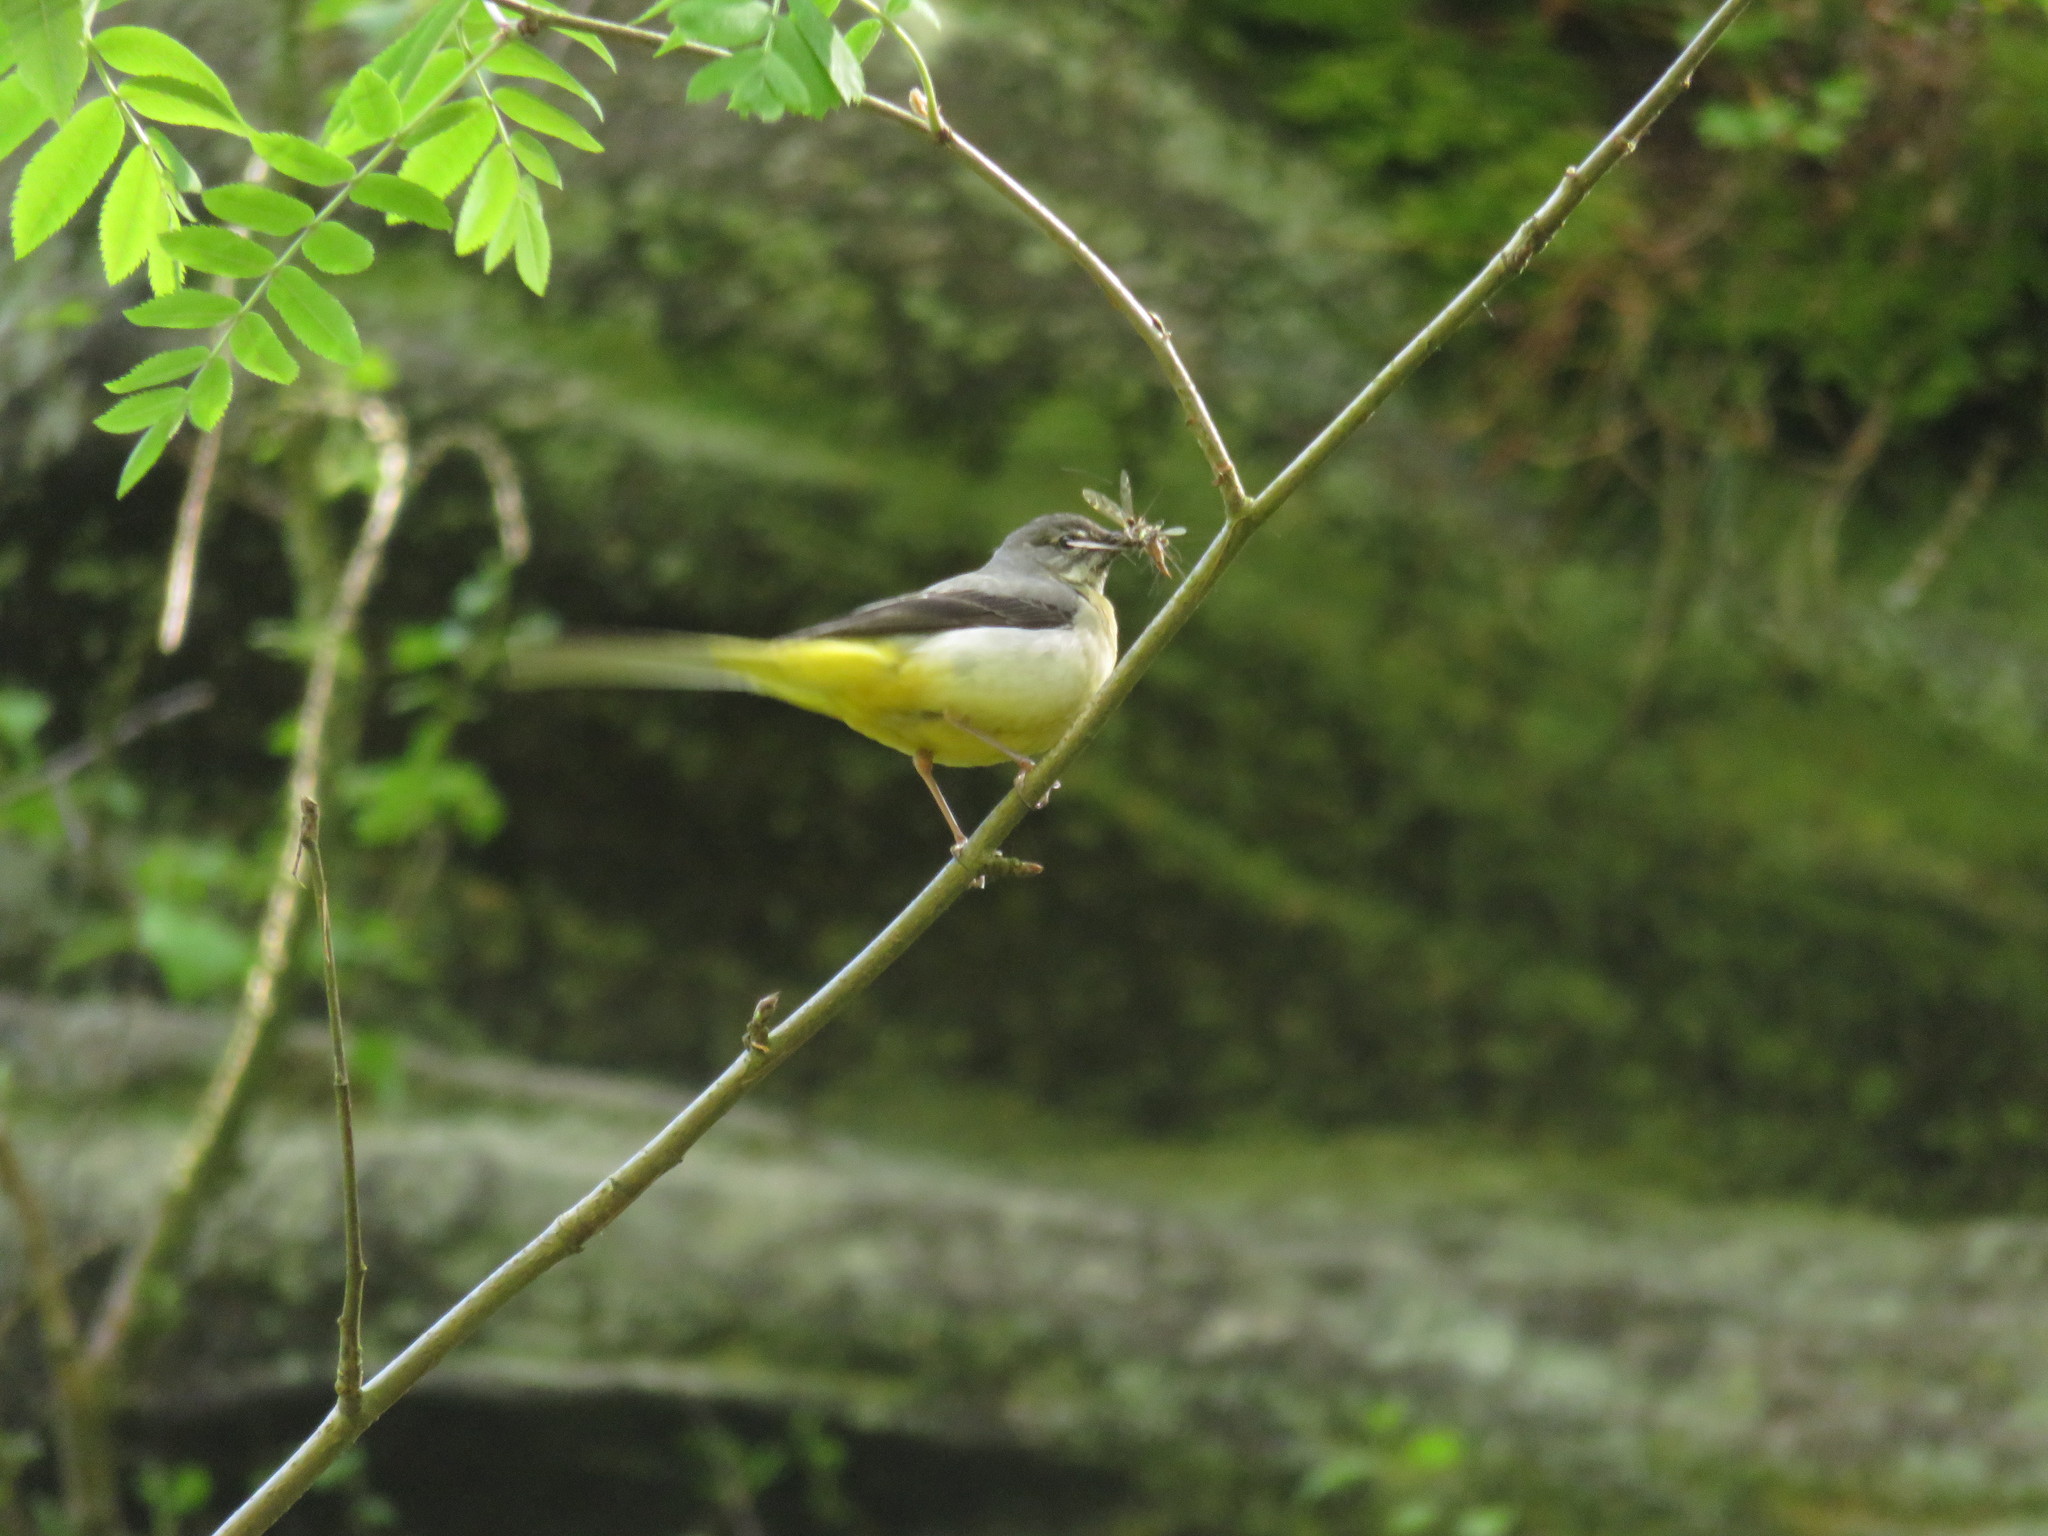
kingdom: Animalia
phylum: Chordata
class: Aves
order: Passeriformes
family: Motacillidae
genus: Motacilla
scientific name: Motacilla cinerea
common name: Grey wagtail
